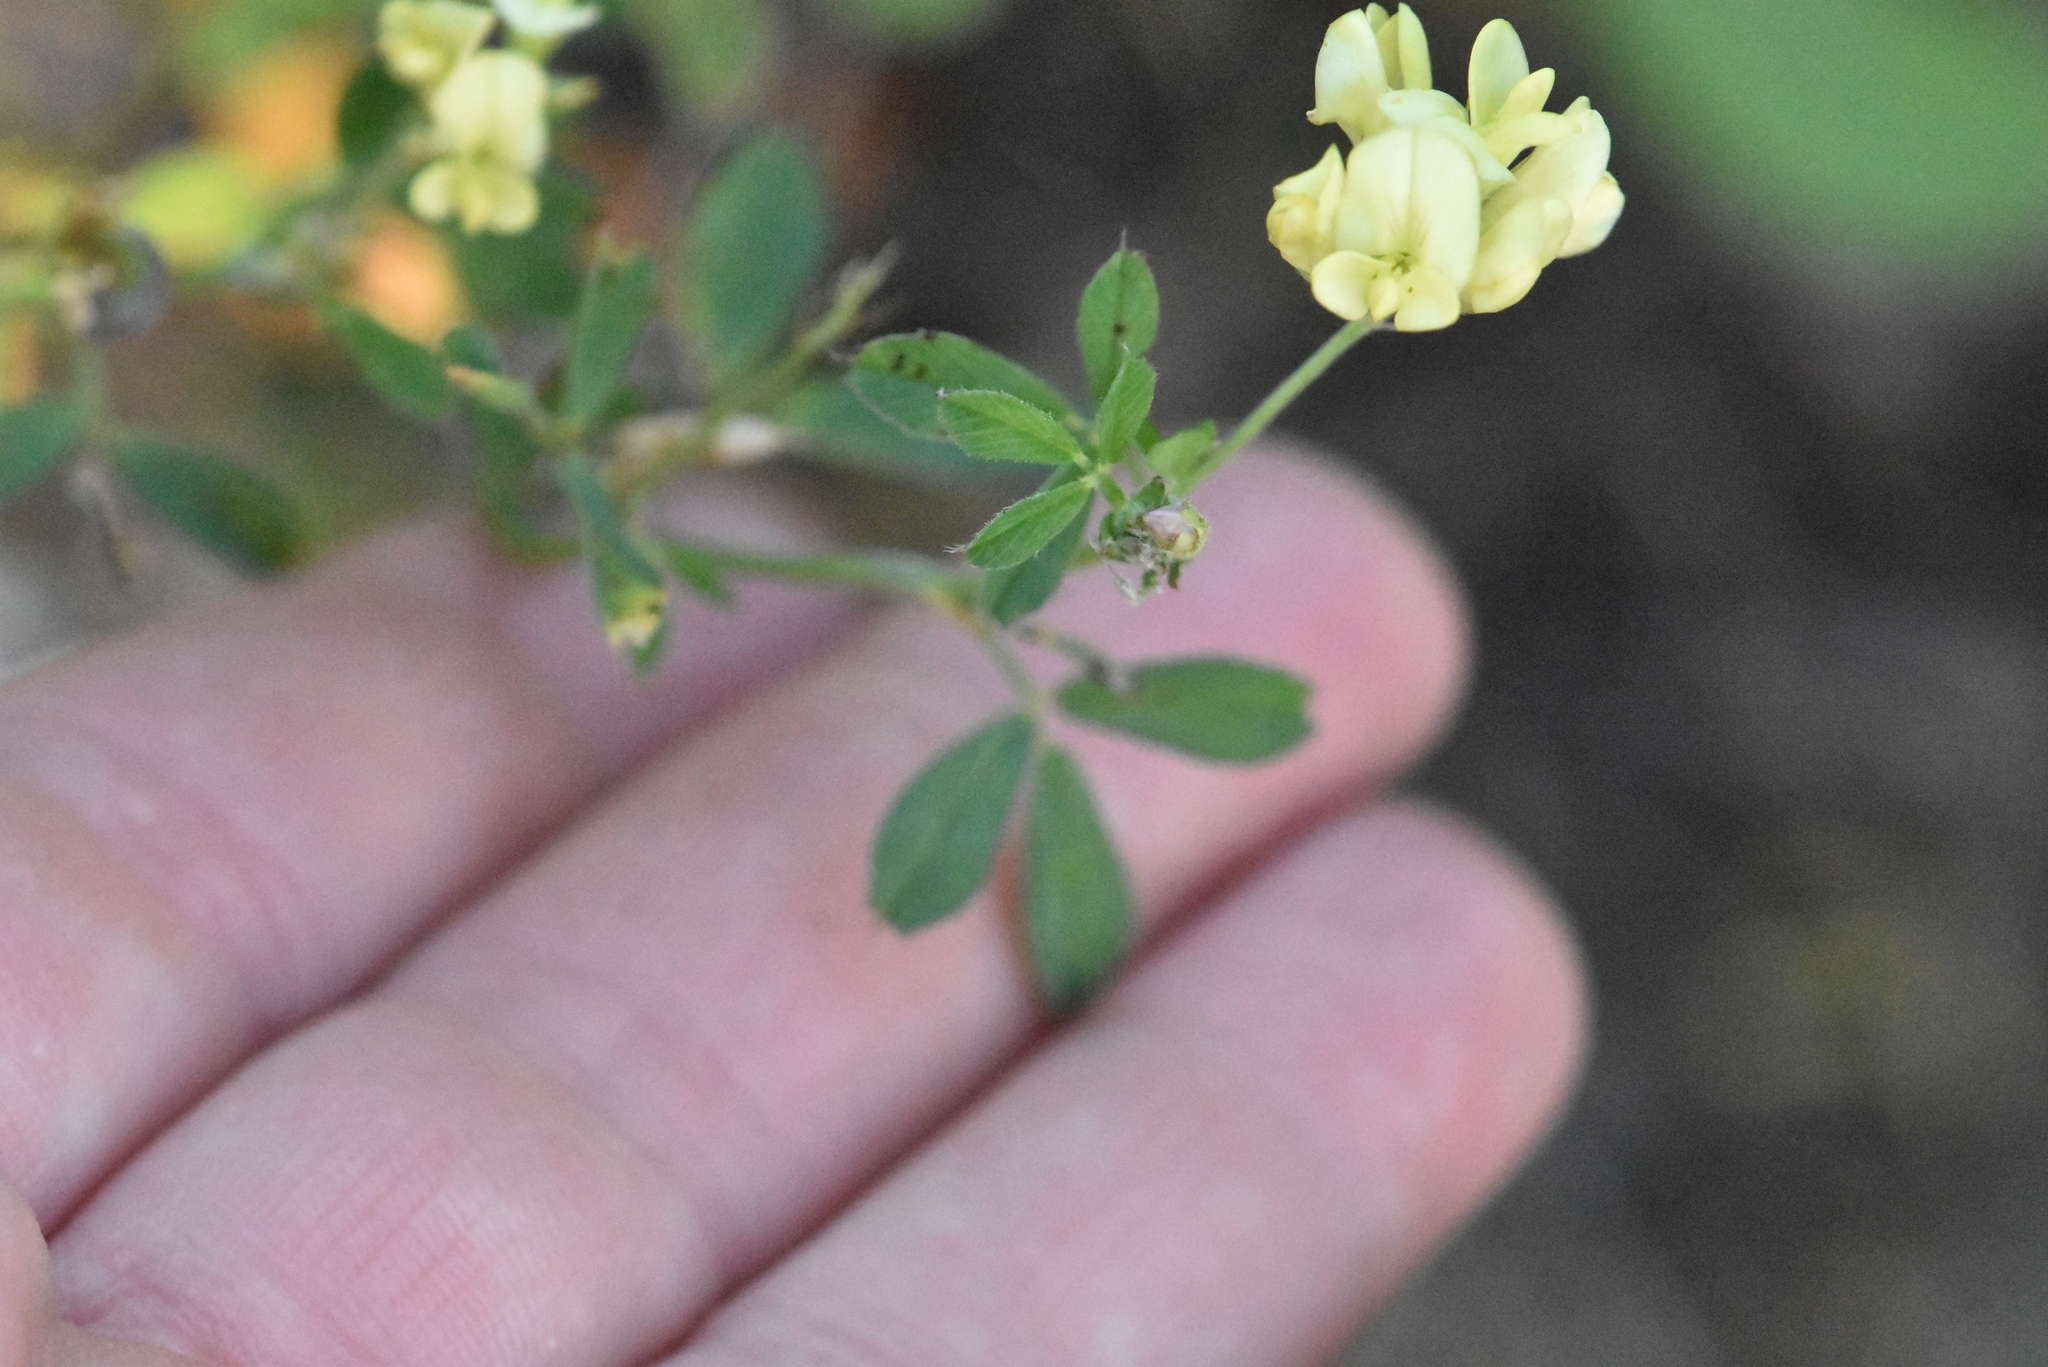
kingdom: Plantae
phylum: Tracheophyta
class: Magnoliopsida
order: Fabales
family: Fabaceae
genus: Medicago
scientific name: Medicago varia
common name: Sand lucerne
